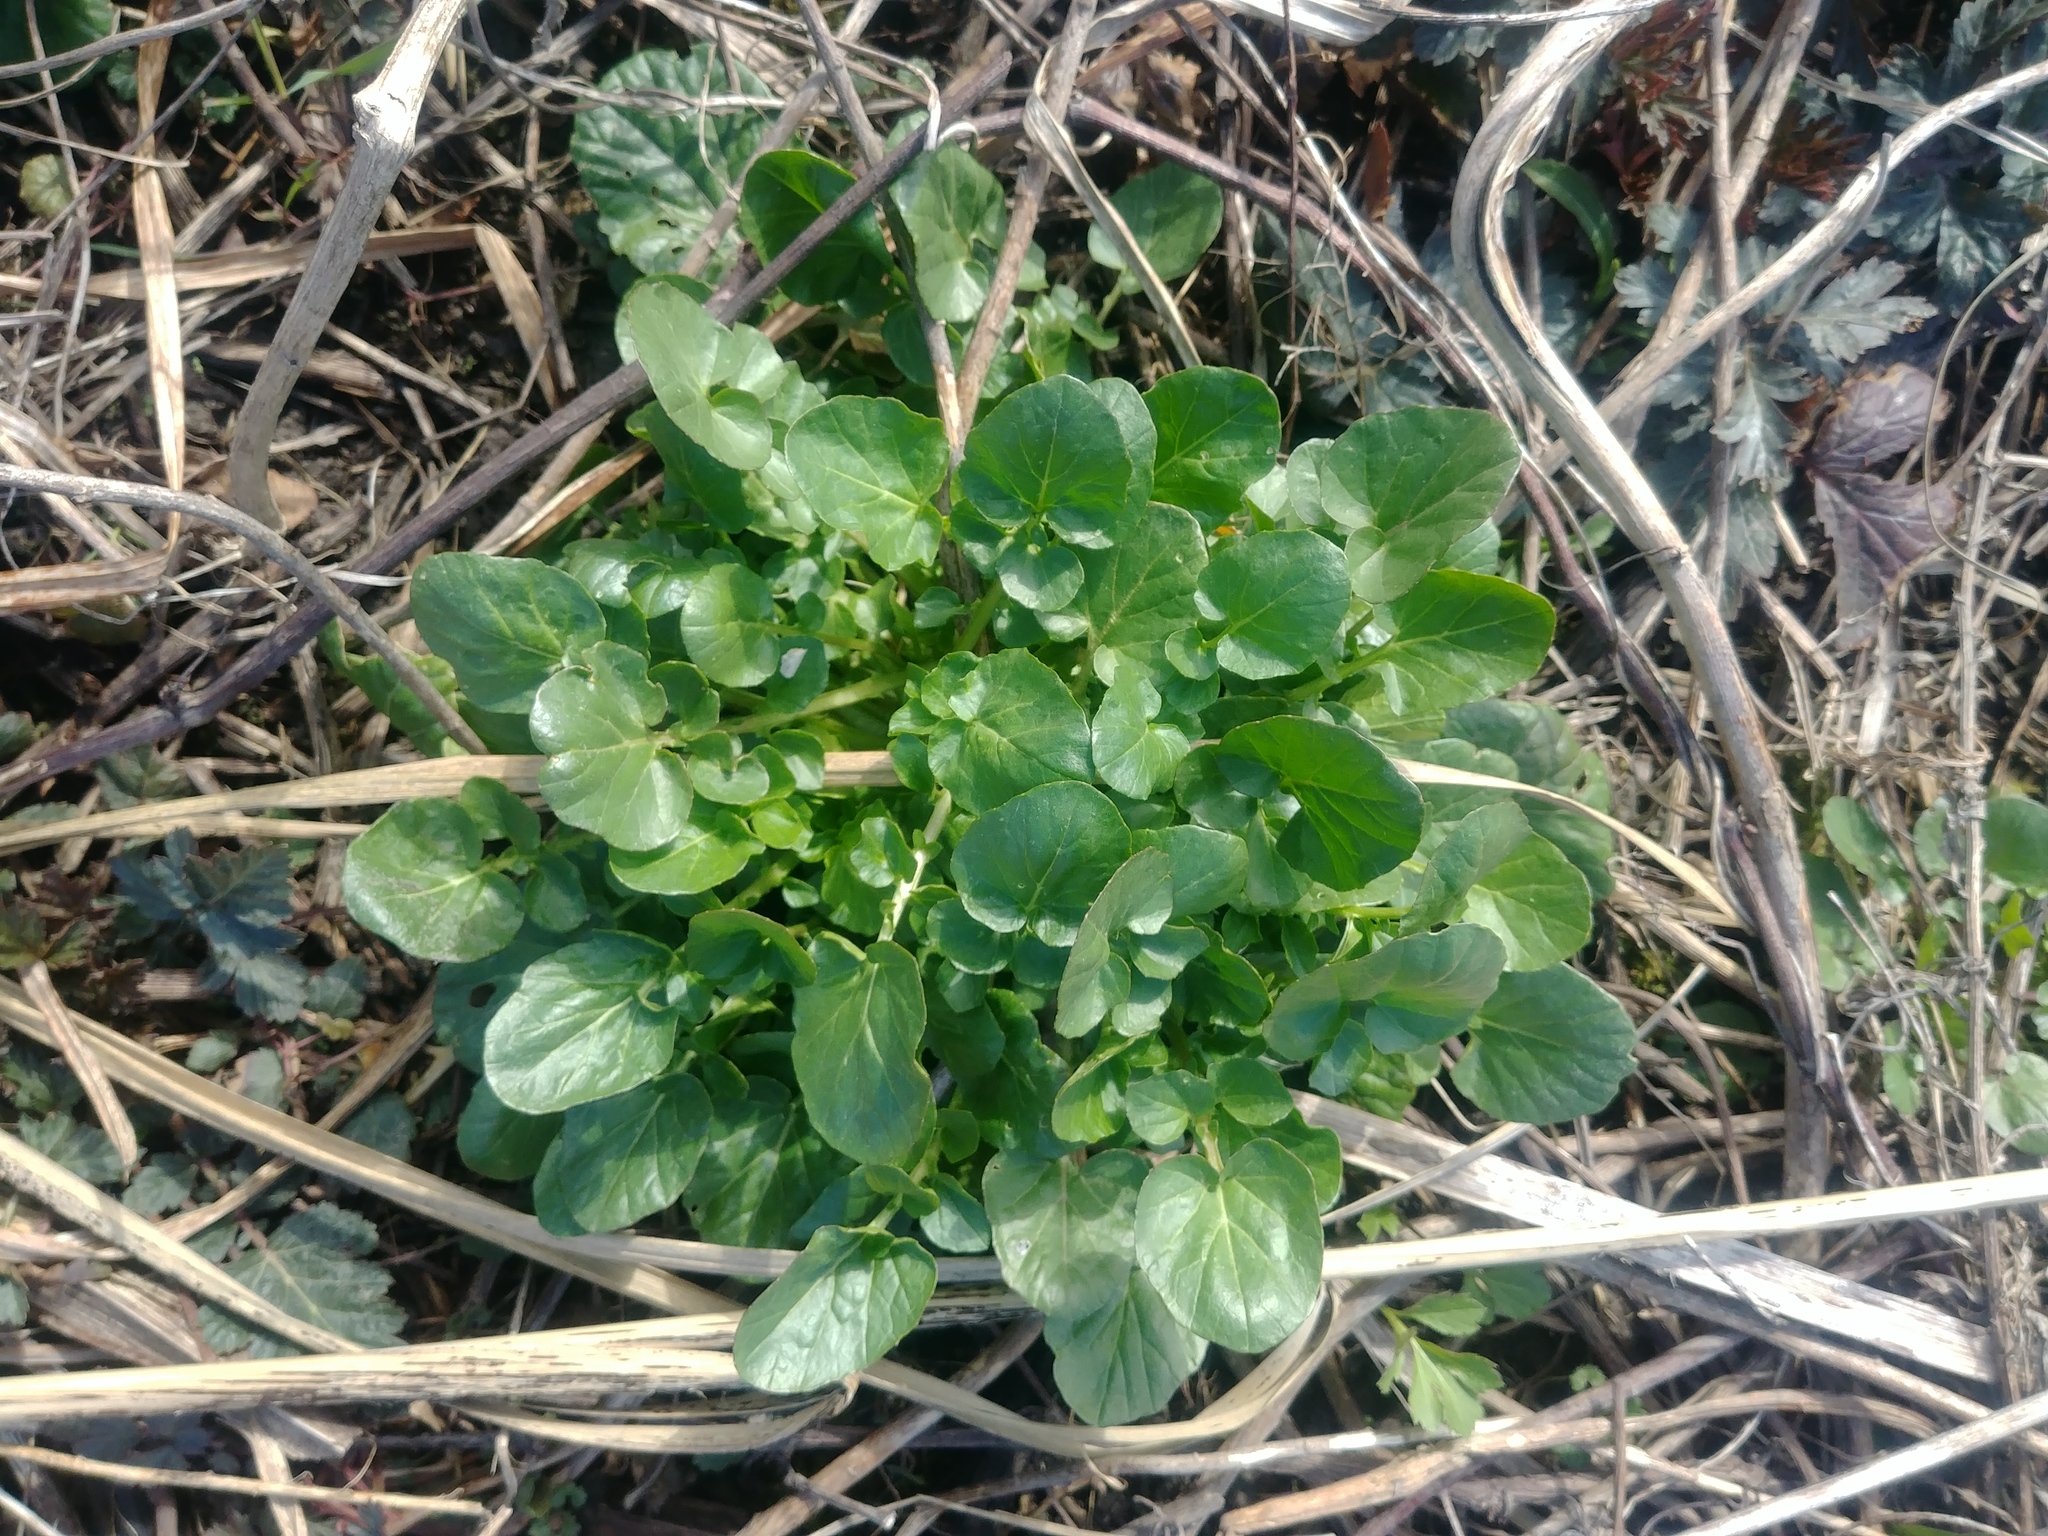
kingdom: Plantae
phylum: Tracheophyta
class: Magnoliopsida
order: Brassicales
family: Brassicaceae
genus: Barbarea
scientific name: Barbarea vulgaris
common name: Cressy-greens
